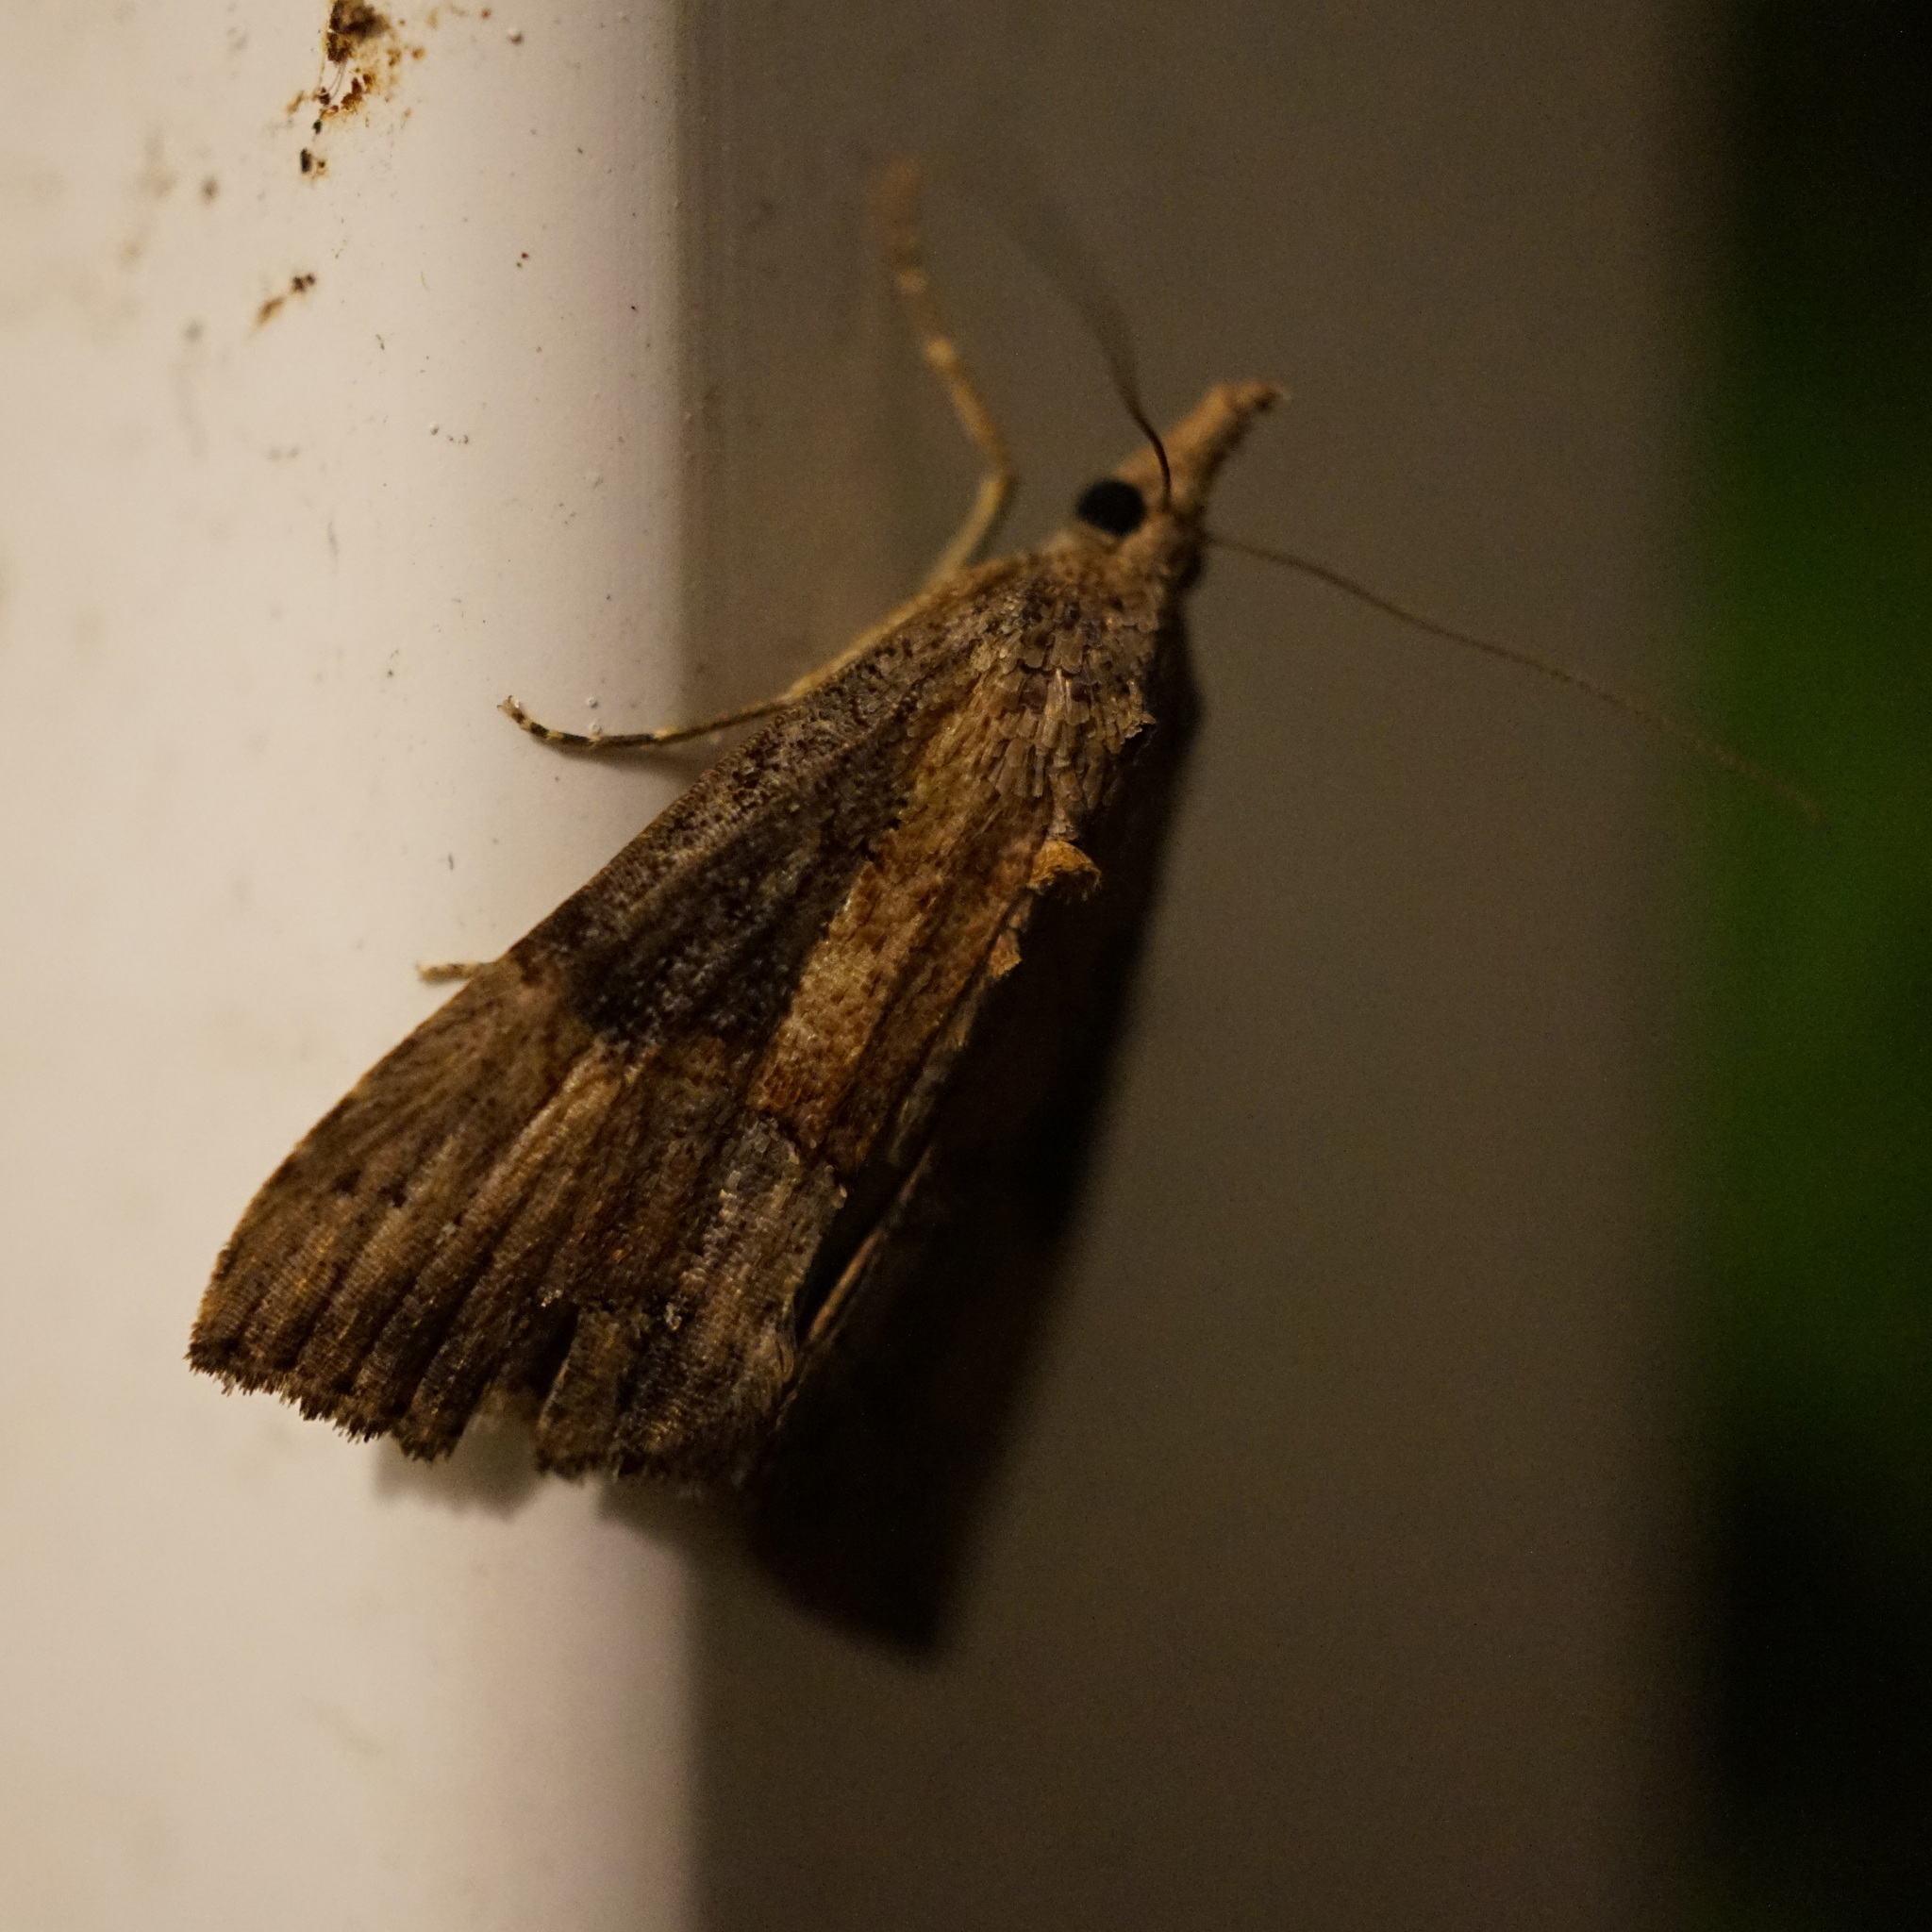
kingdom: Animalia
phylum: Arthropoda
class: Insecta
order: Lepidoptera
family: Erebidae
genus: Hypena
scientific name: Hypena scabra
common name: Green cloverworm
